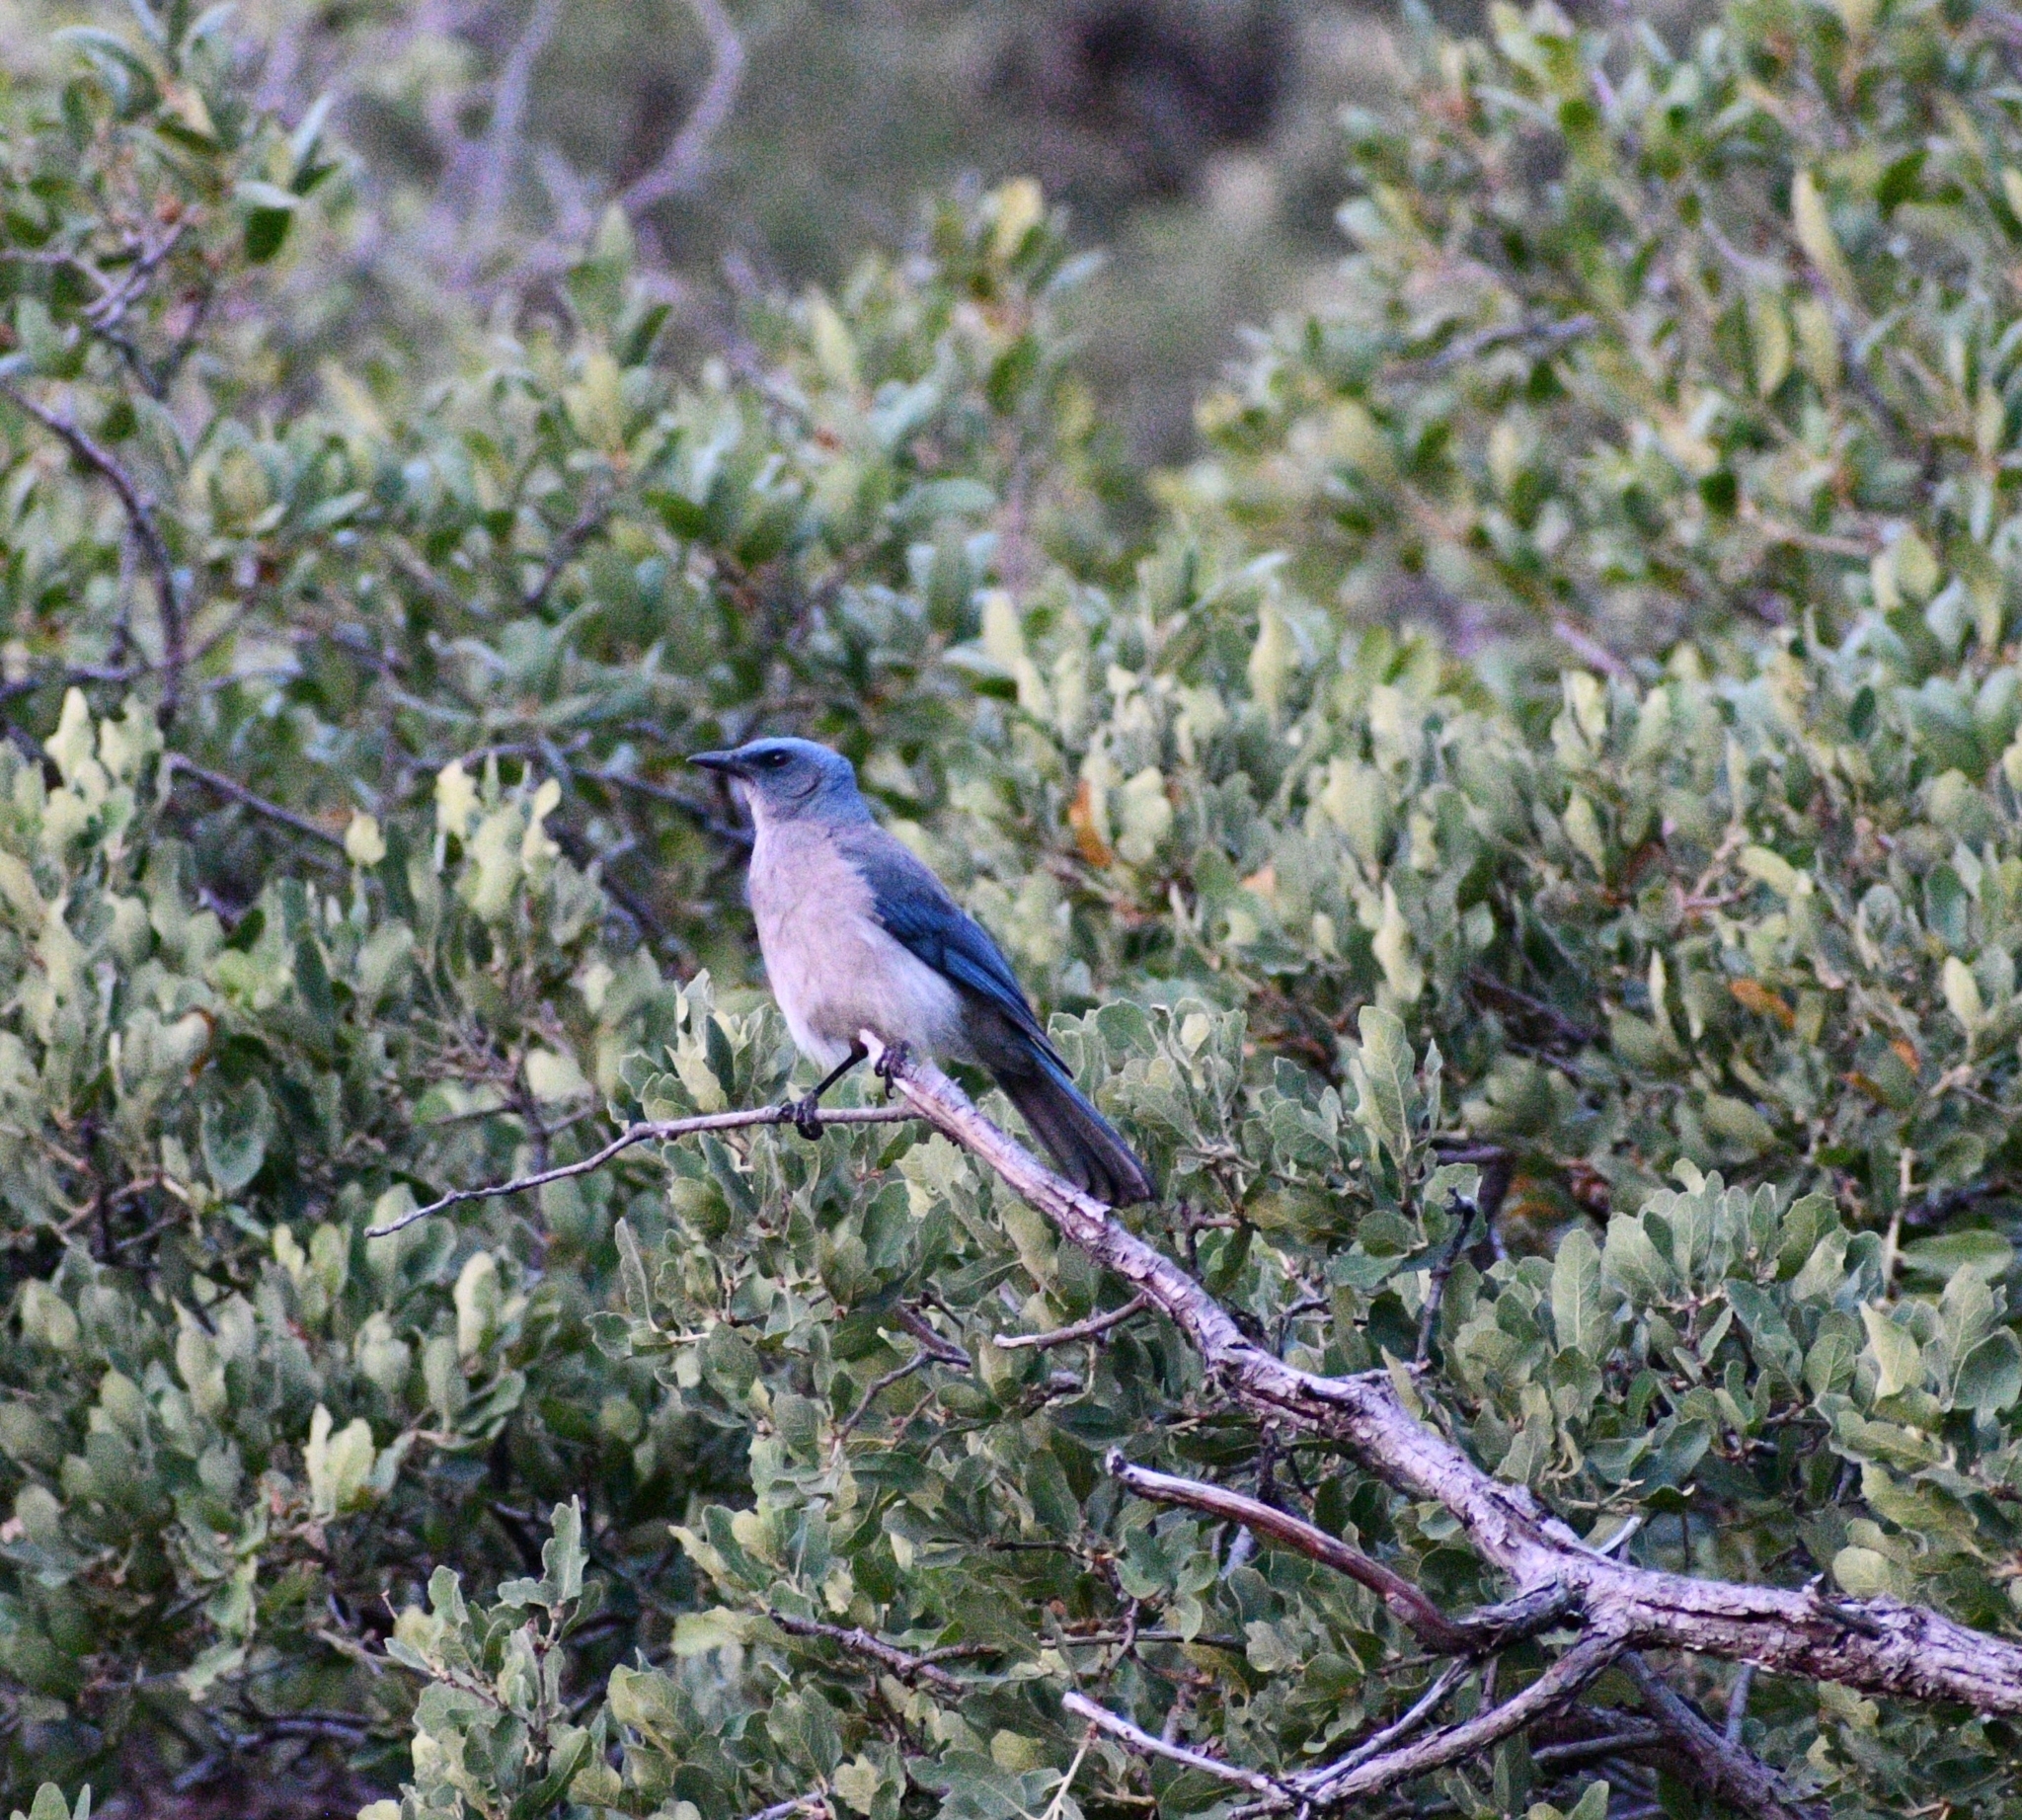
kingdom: Animalia
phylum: Chordata
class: Aves
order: Passeriformes
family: Corvidae
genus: Aphelocoma
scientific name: Aphelocoma wollweberi
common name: Mexican jay
